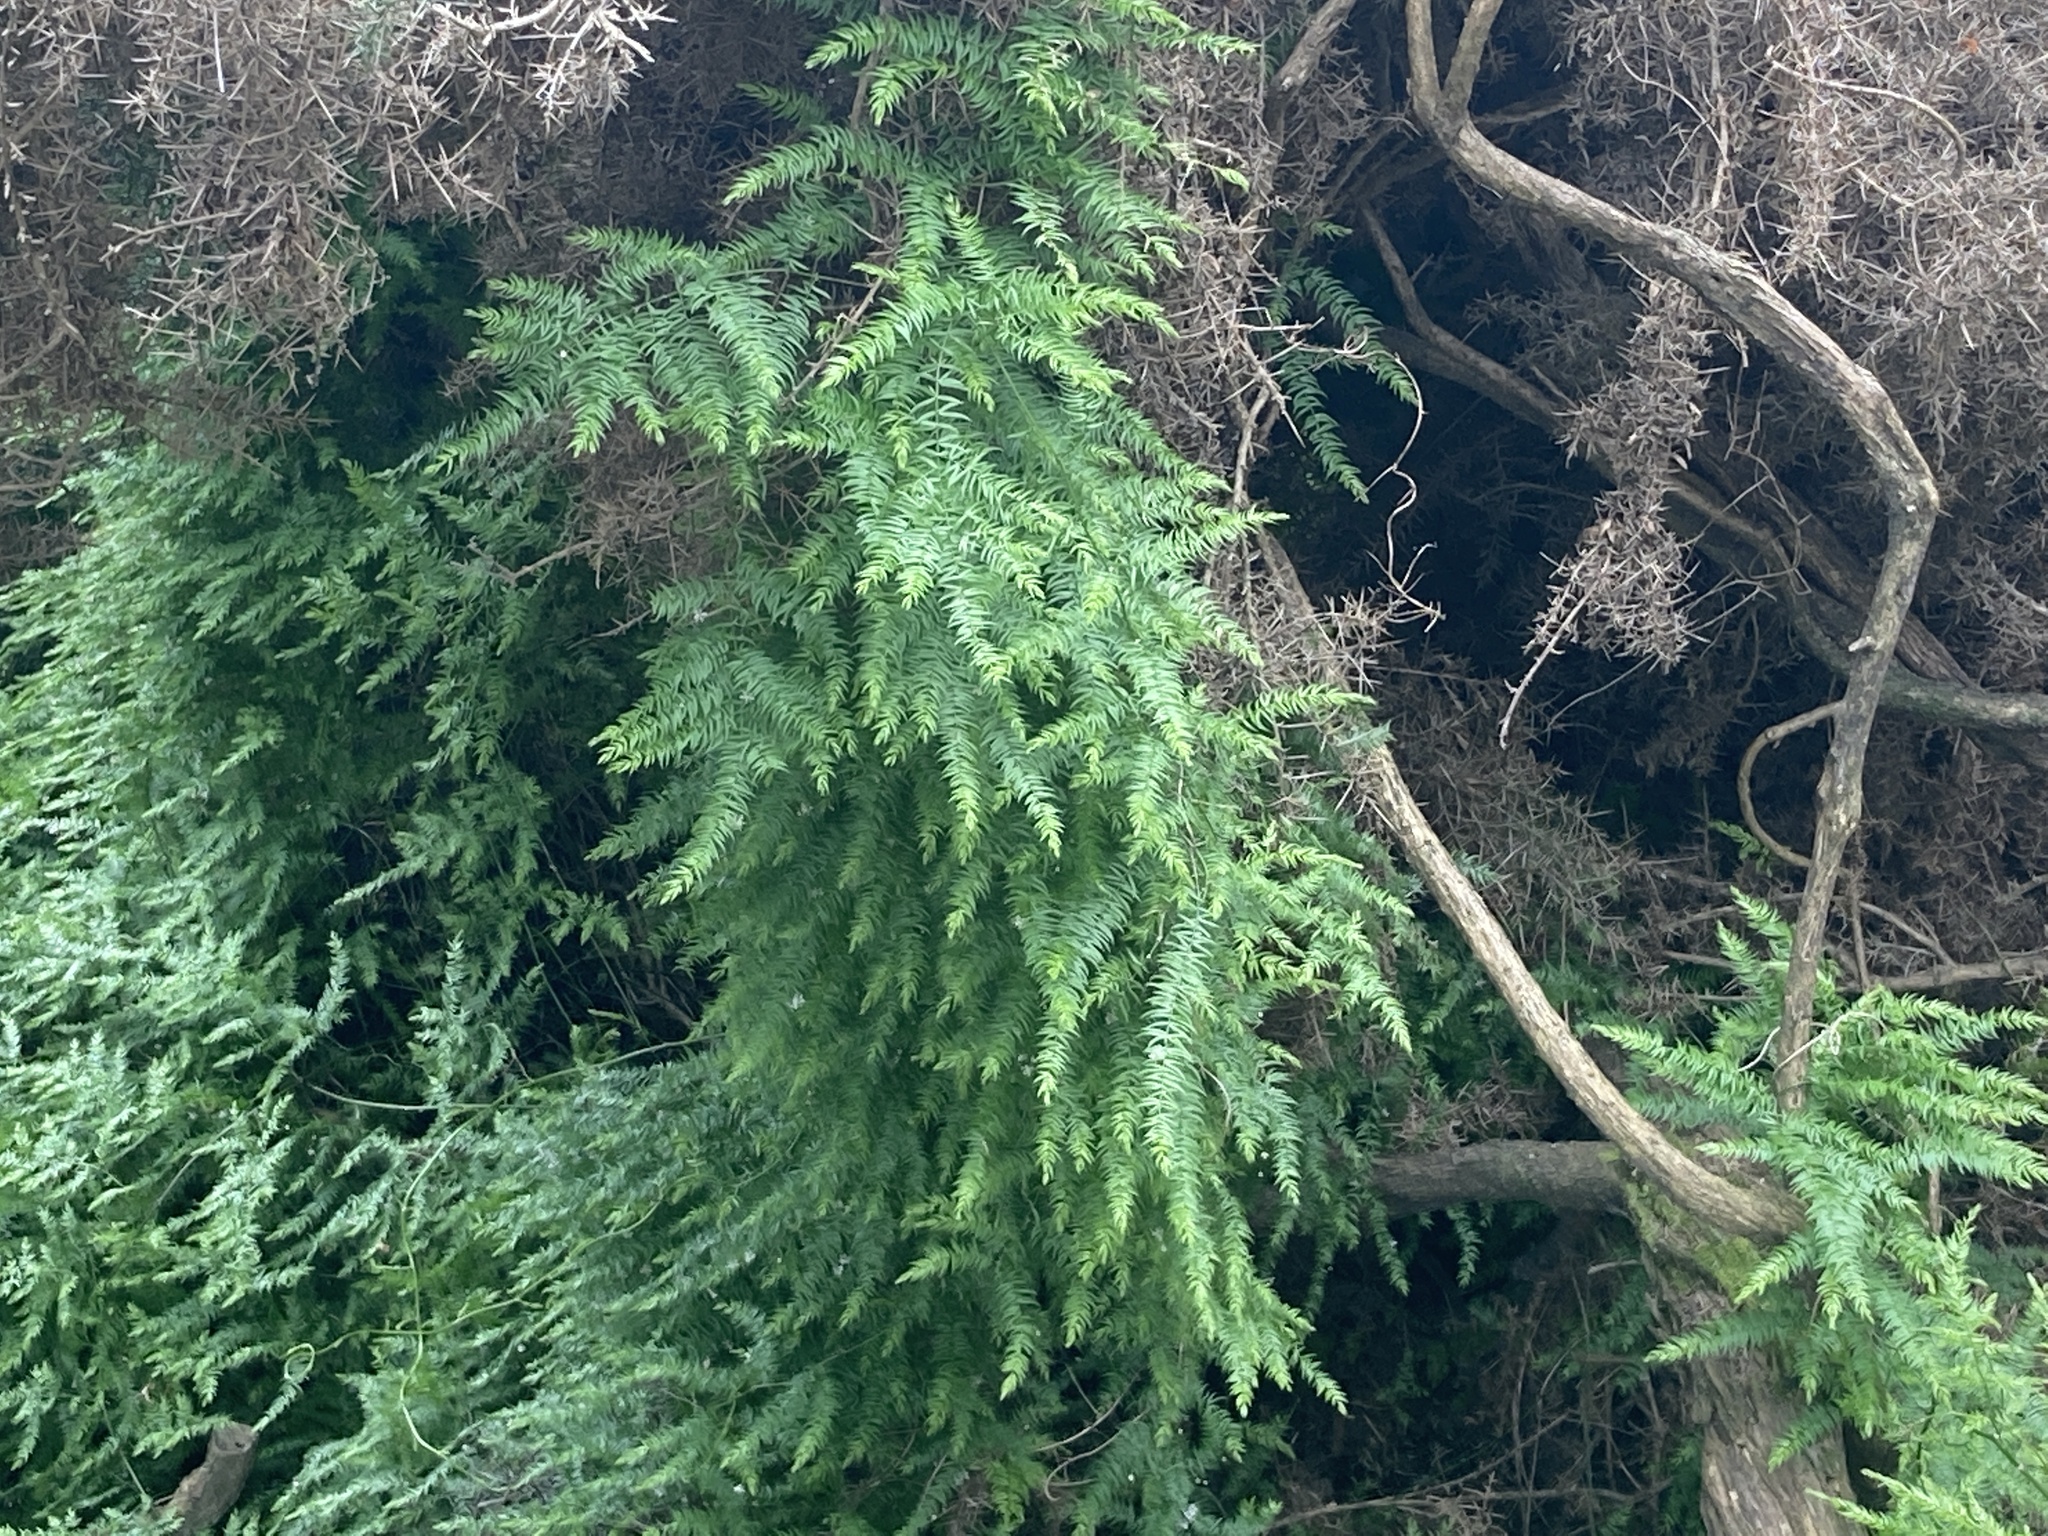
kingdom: Plantae
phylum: Tracheophyta
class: Liliopsida
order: Asparagales
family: Asparagaceae
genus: Asparagus
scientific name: Asparagus scandens
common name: Asparagus-fern
